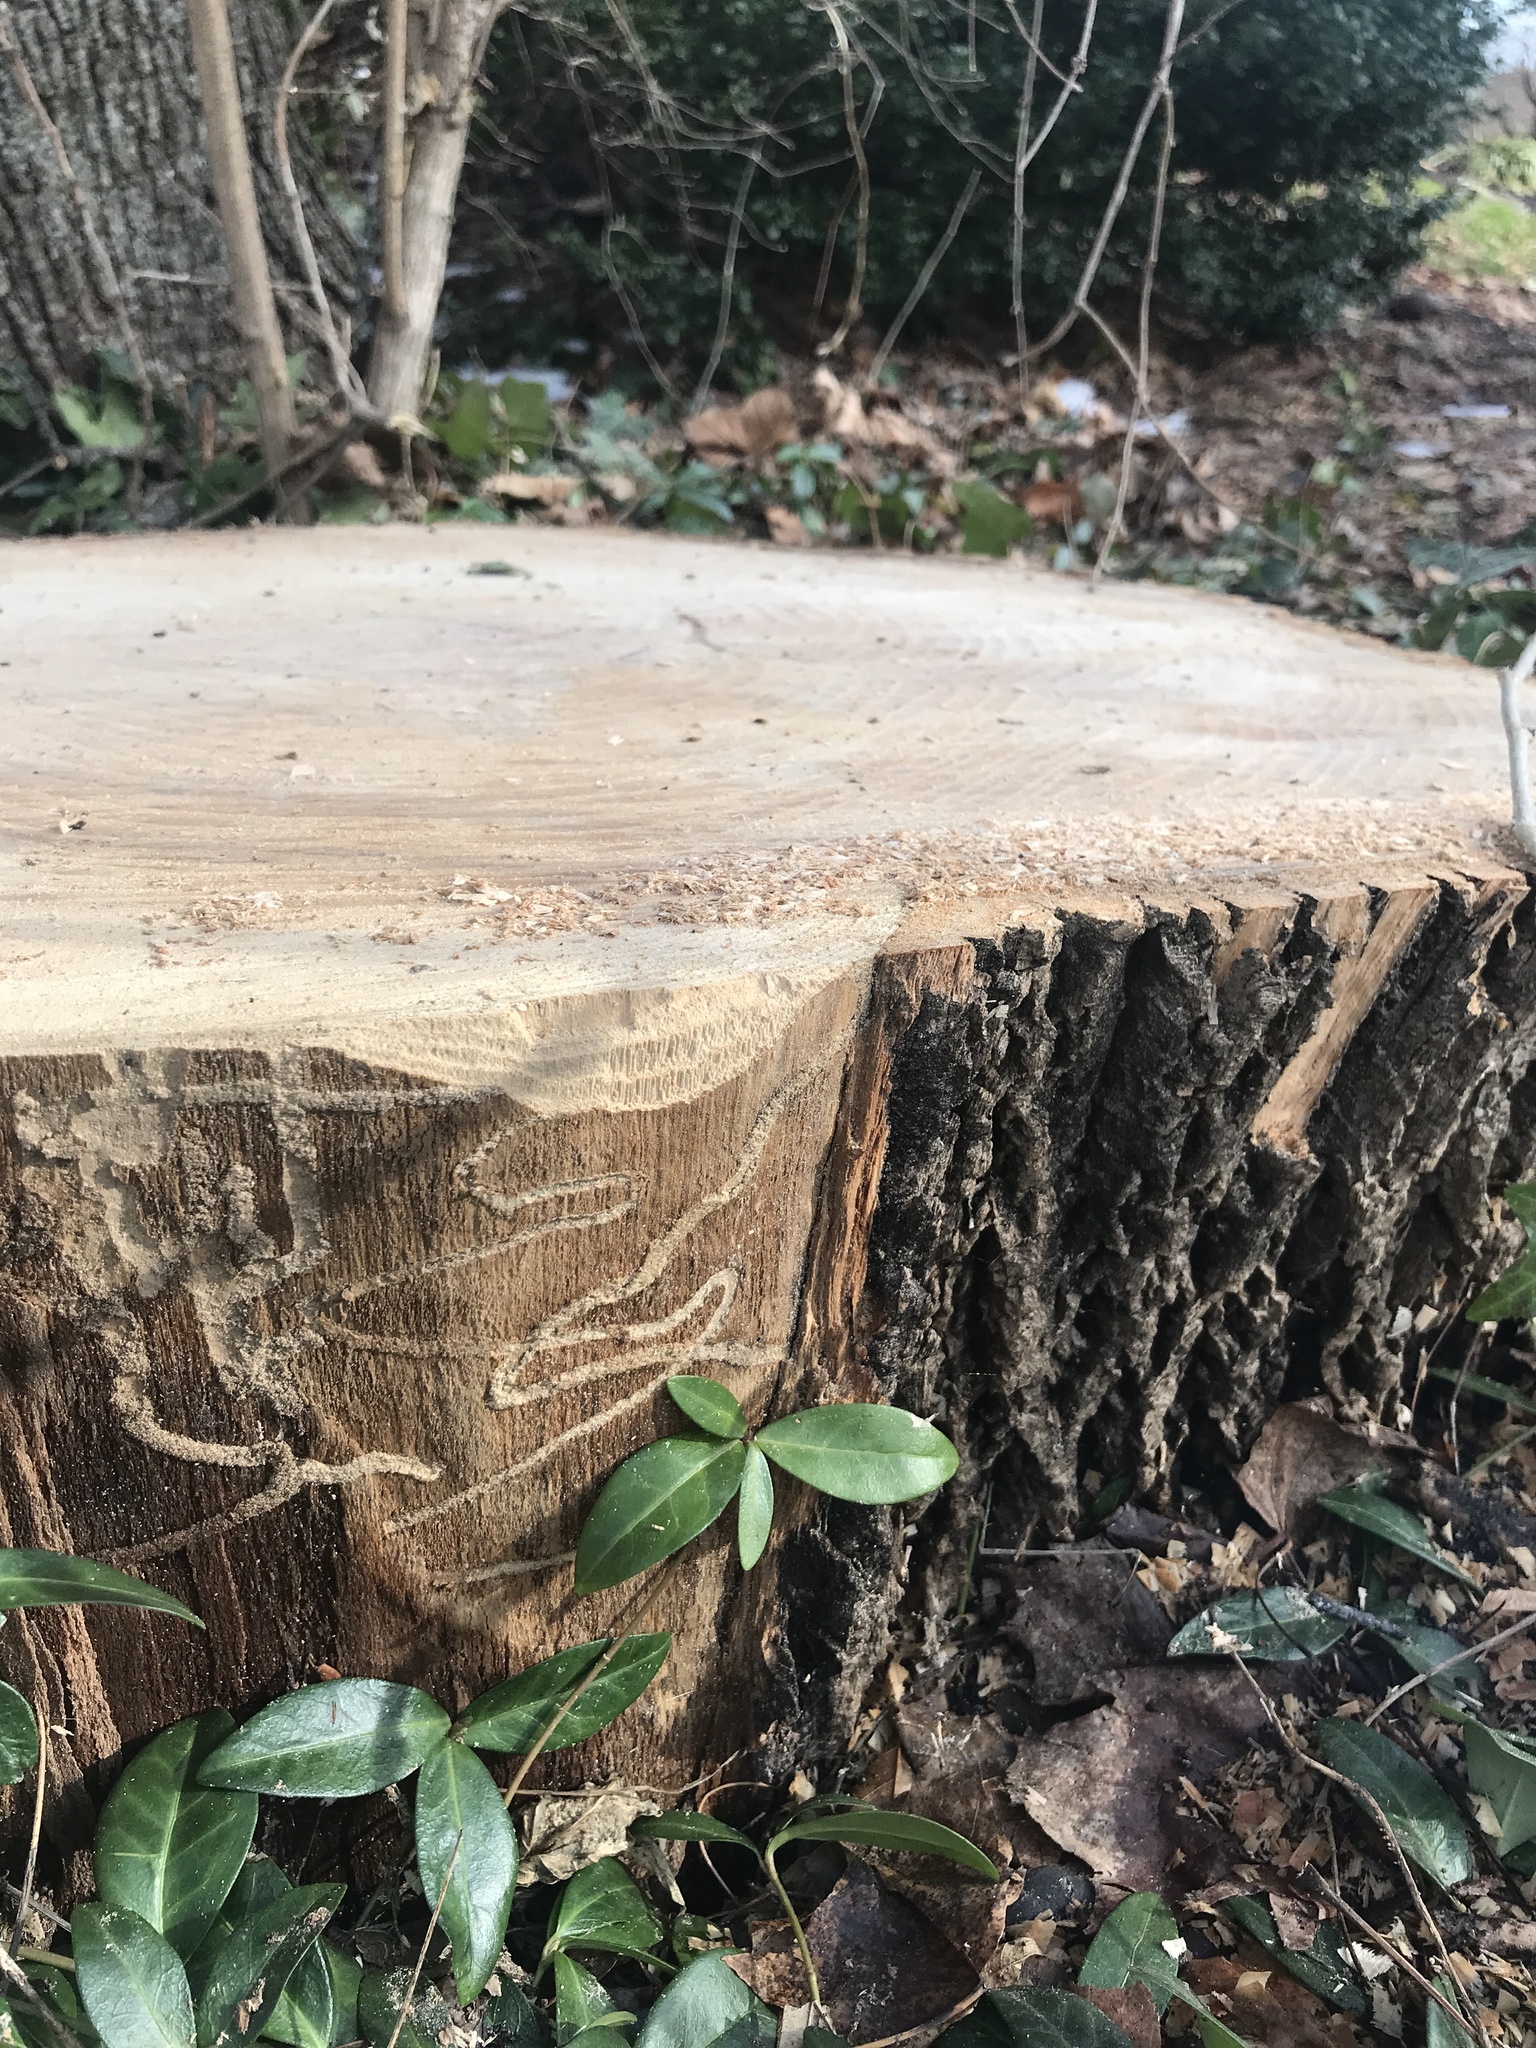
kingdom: Animalia
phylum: Arthropoda
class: Insecta
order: Coleoptera
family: Buprestidae
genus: Agrilus
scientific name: Agrilus planipennis
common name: Emerald ash borer
